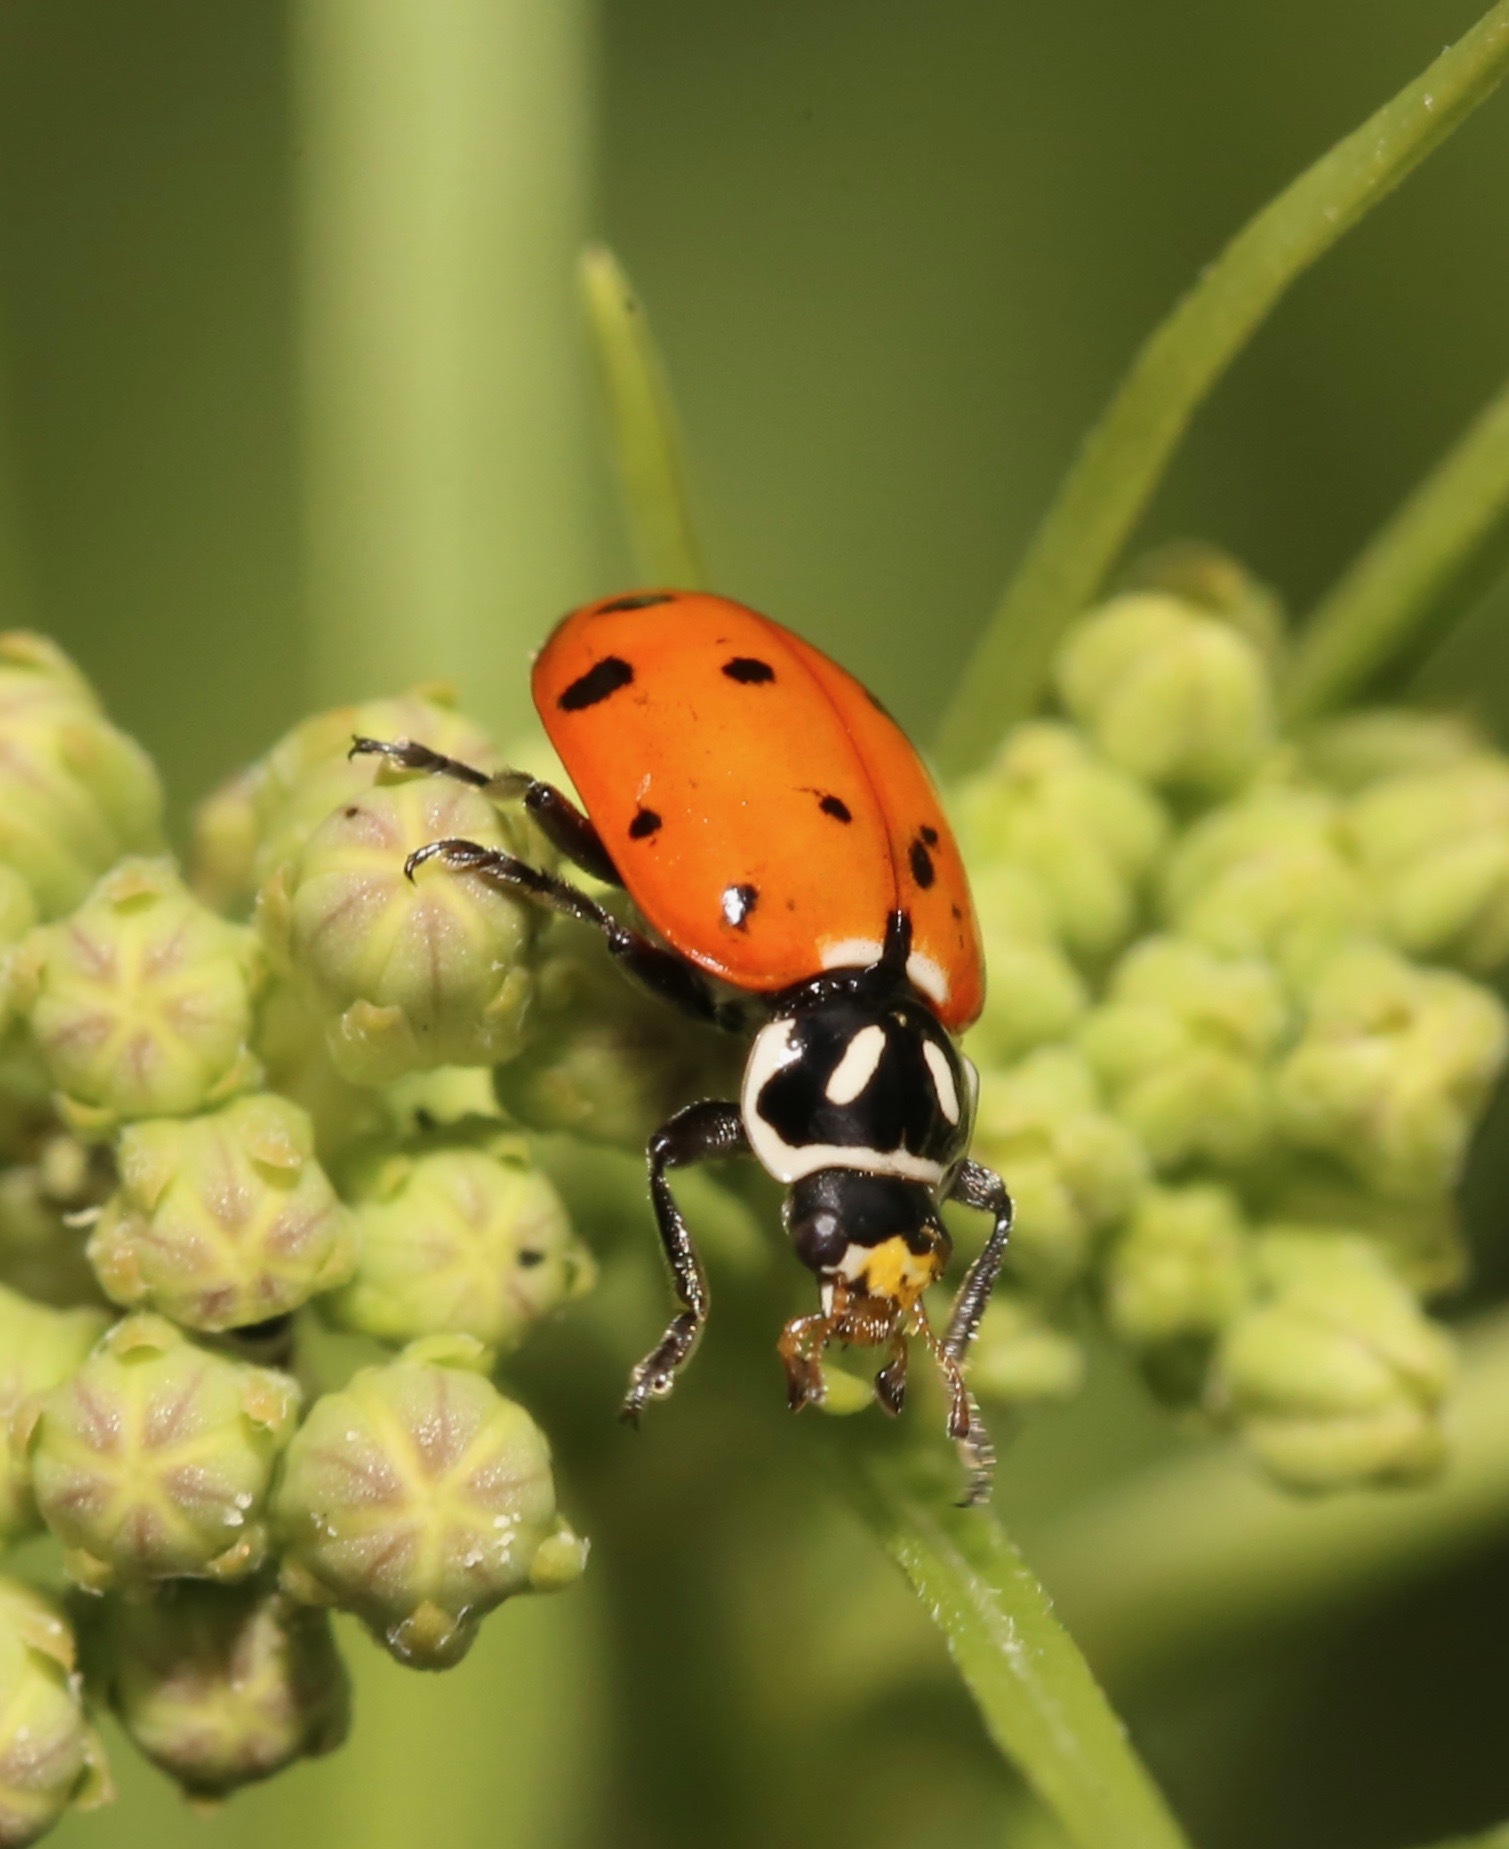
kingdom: Animalia
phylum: Arthropoda
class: Insecta
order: Coleoptera
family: Coccinellidae
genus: Hippodamia
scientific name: Hippodamia convergens
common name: Convergent lady beetle
